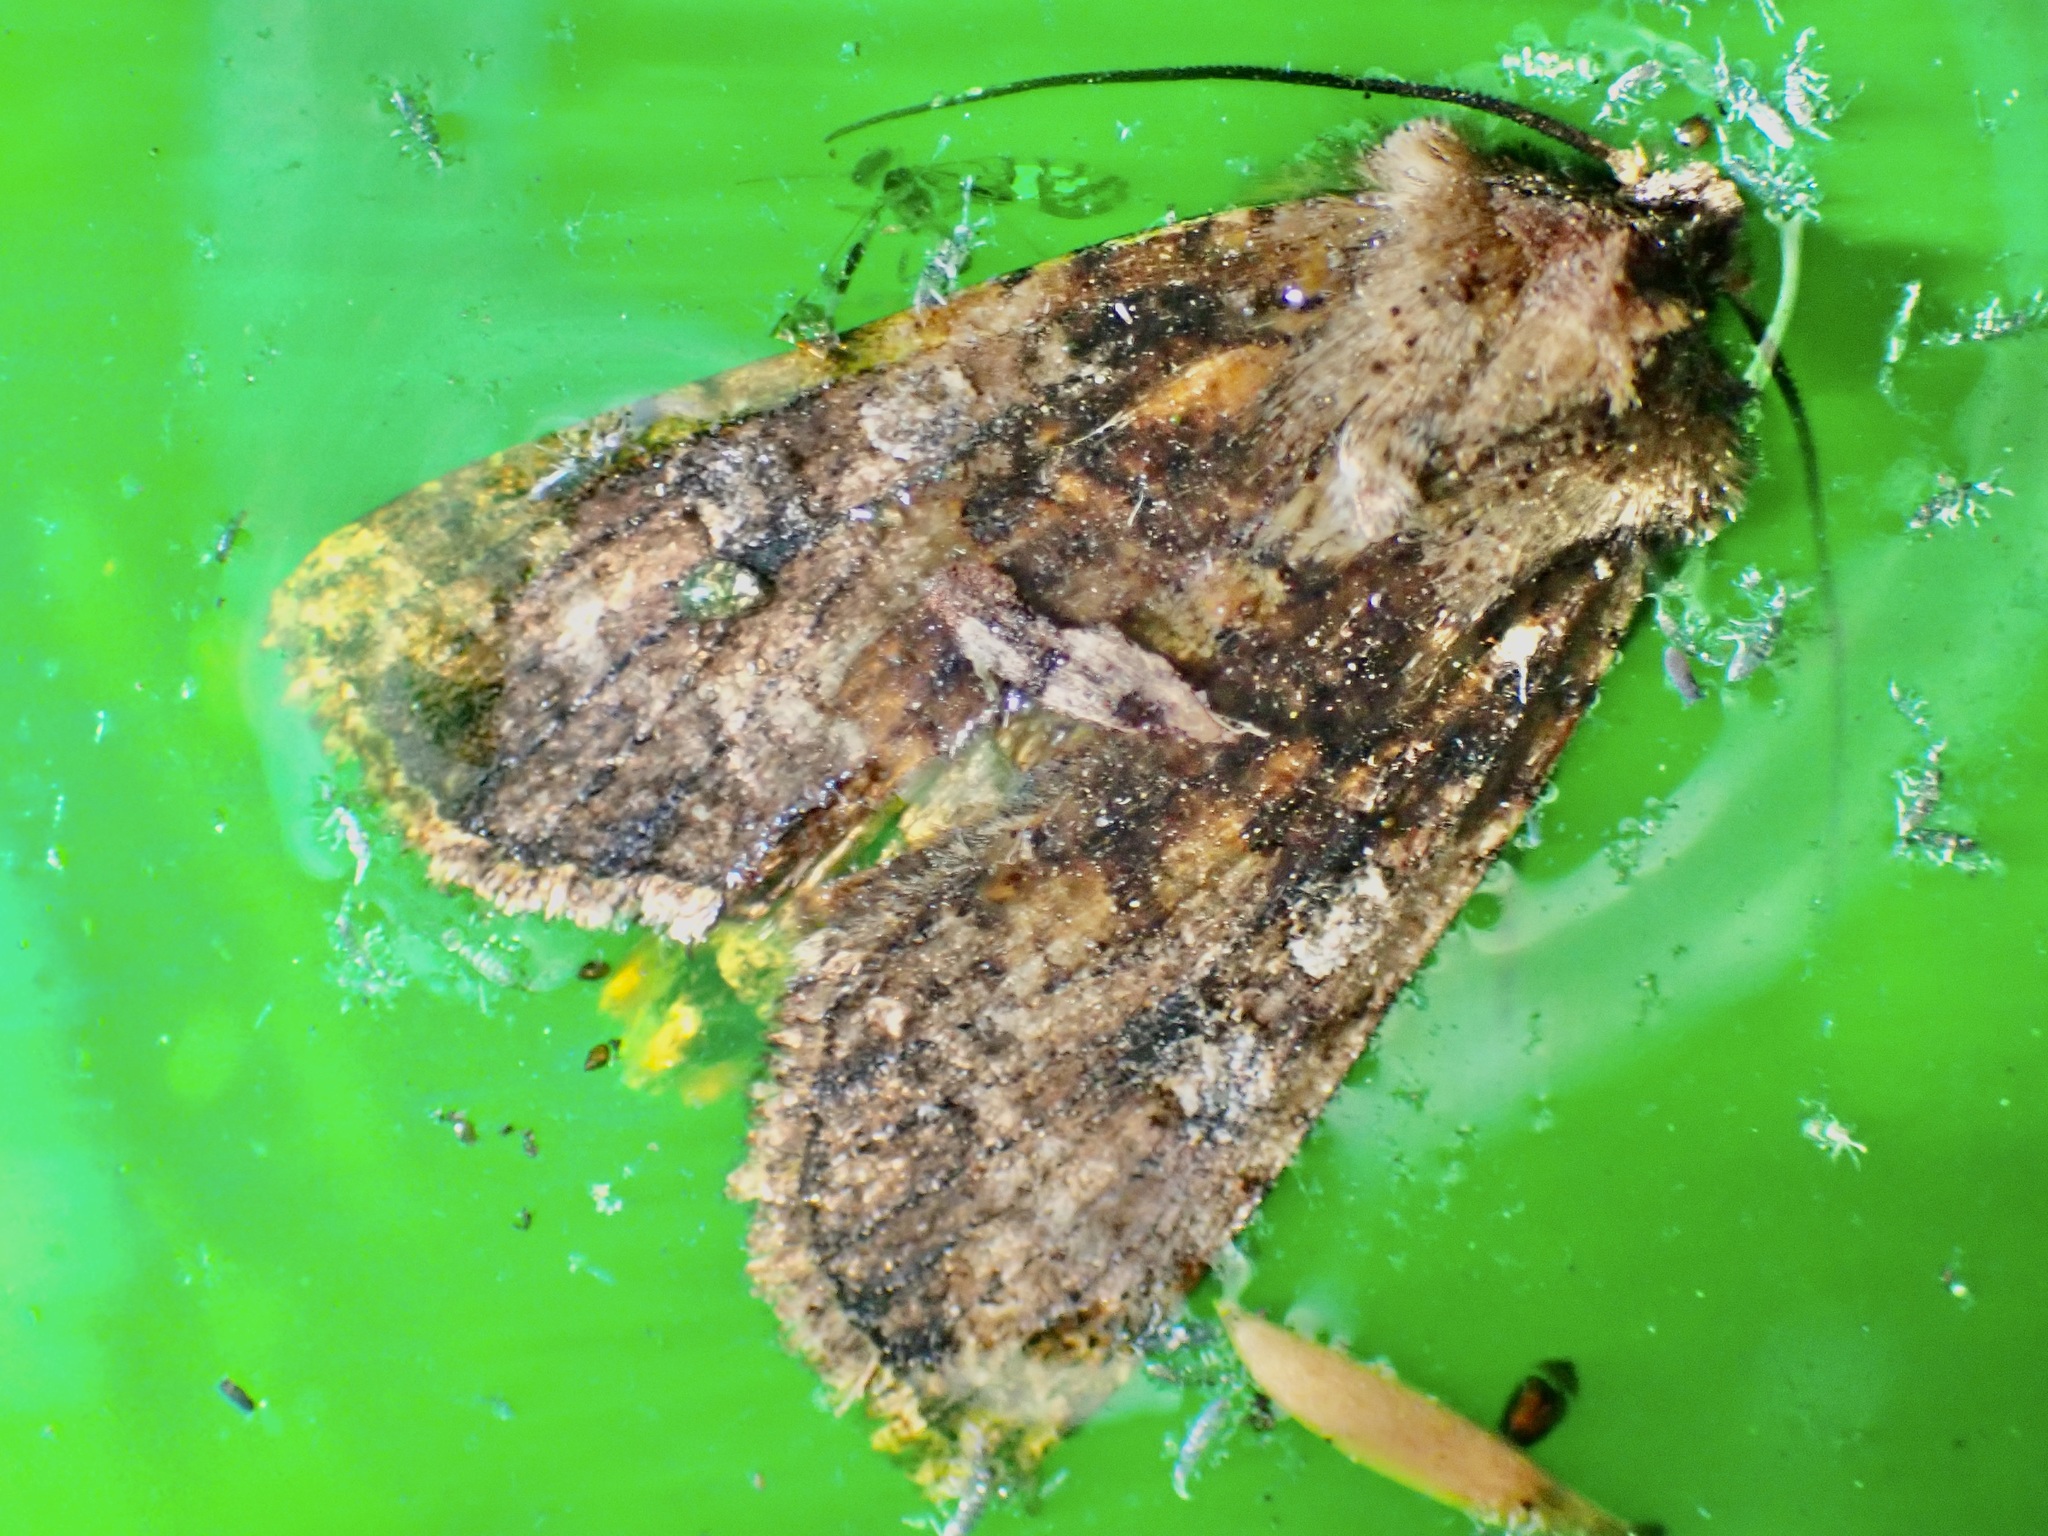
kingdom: Animalia
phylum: Arthropoda
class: Insecta
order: Lepidoptera
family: Noctuidae
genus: Ichneutica
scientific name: Ichneutica morosa
